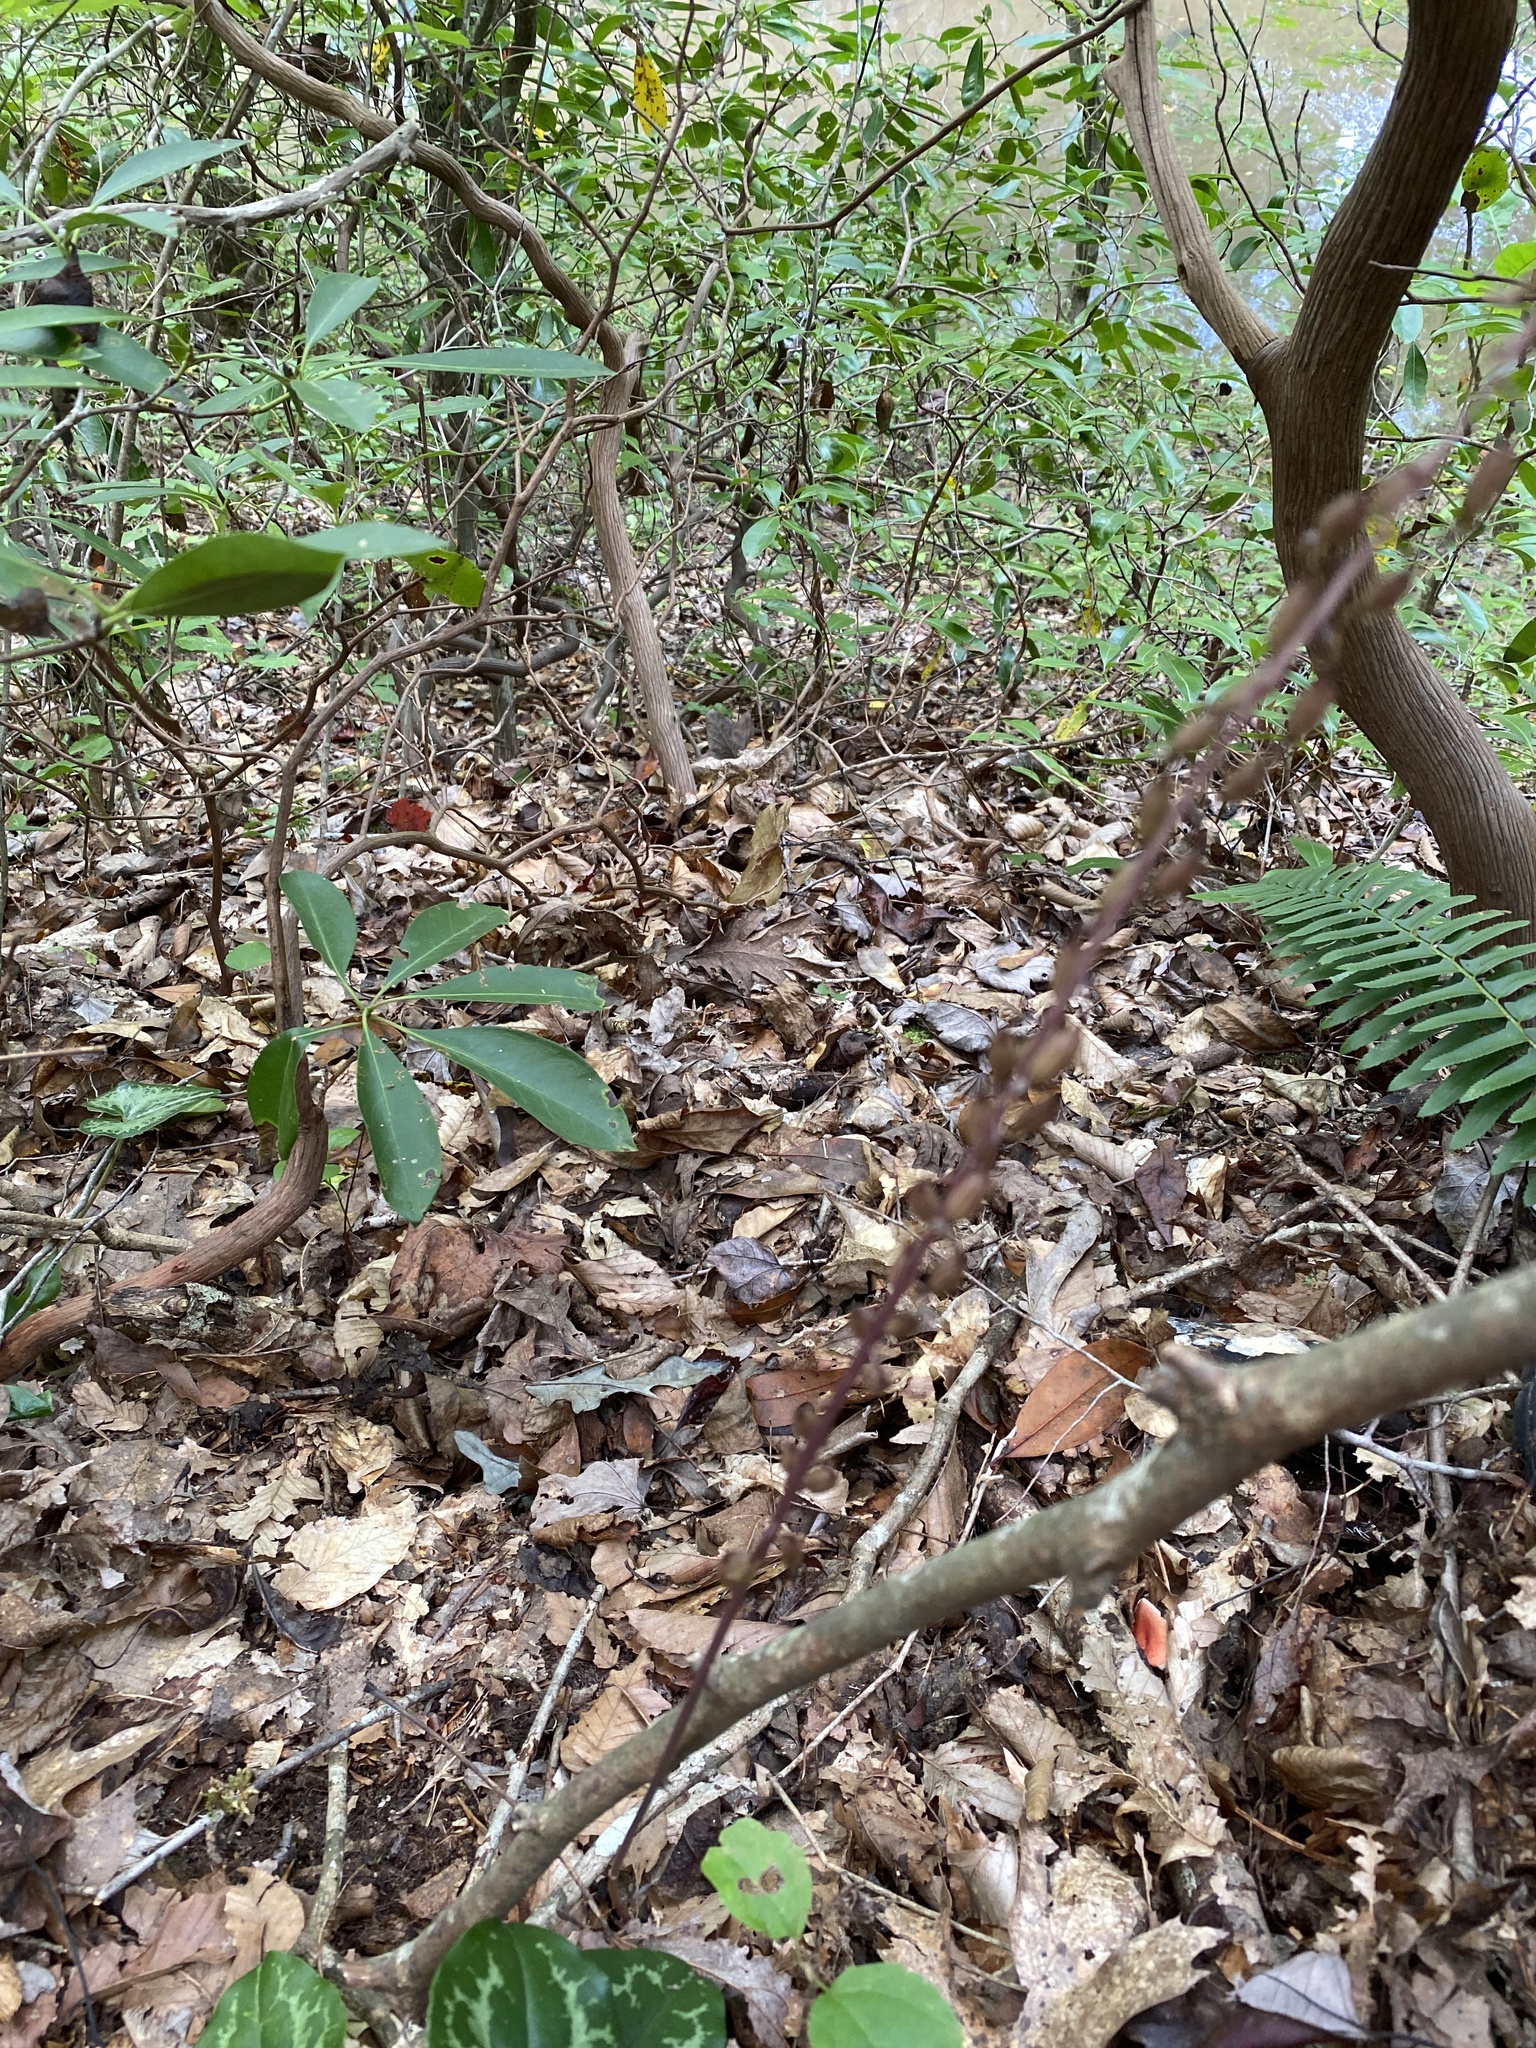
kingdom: Plantae
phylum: Tracheophyta
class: Liliopsida
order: Asparagales
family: Orchidaceae
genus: Tipularia
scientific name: Tipularia discolor
